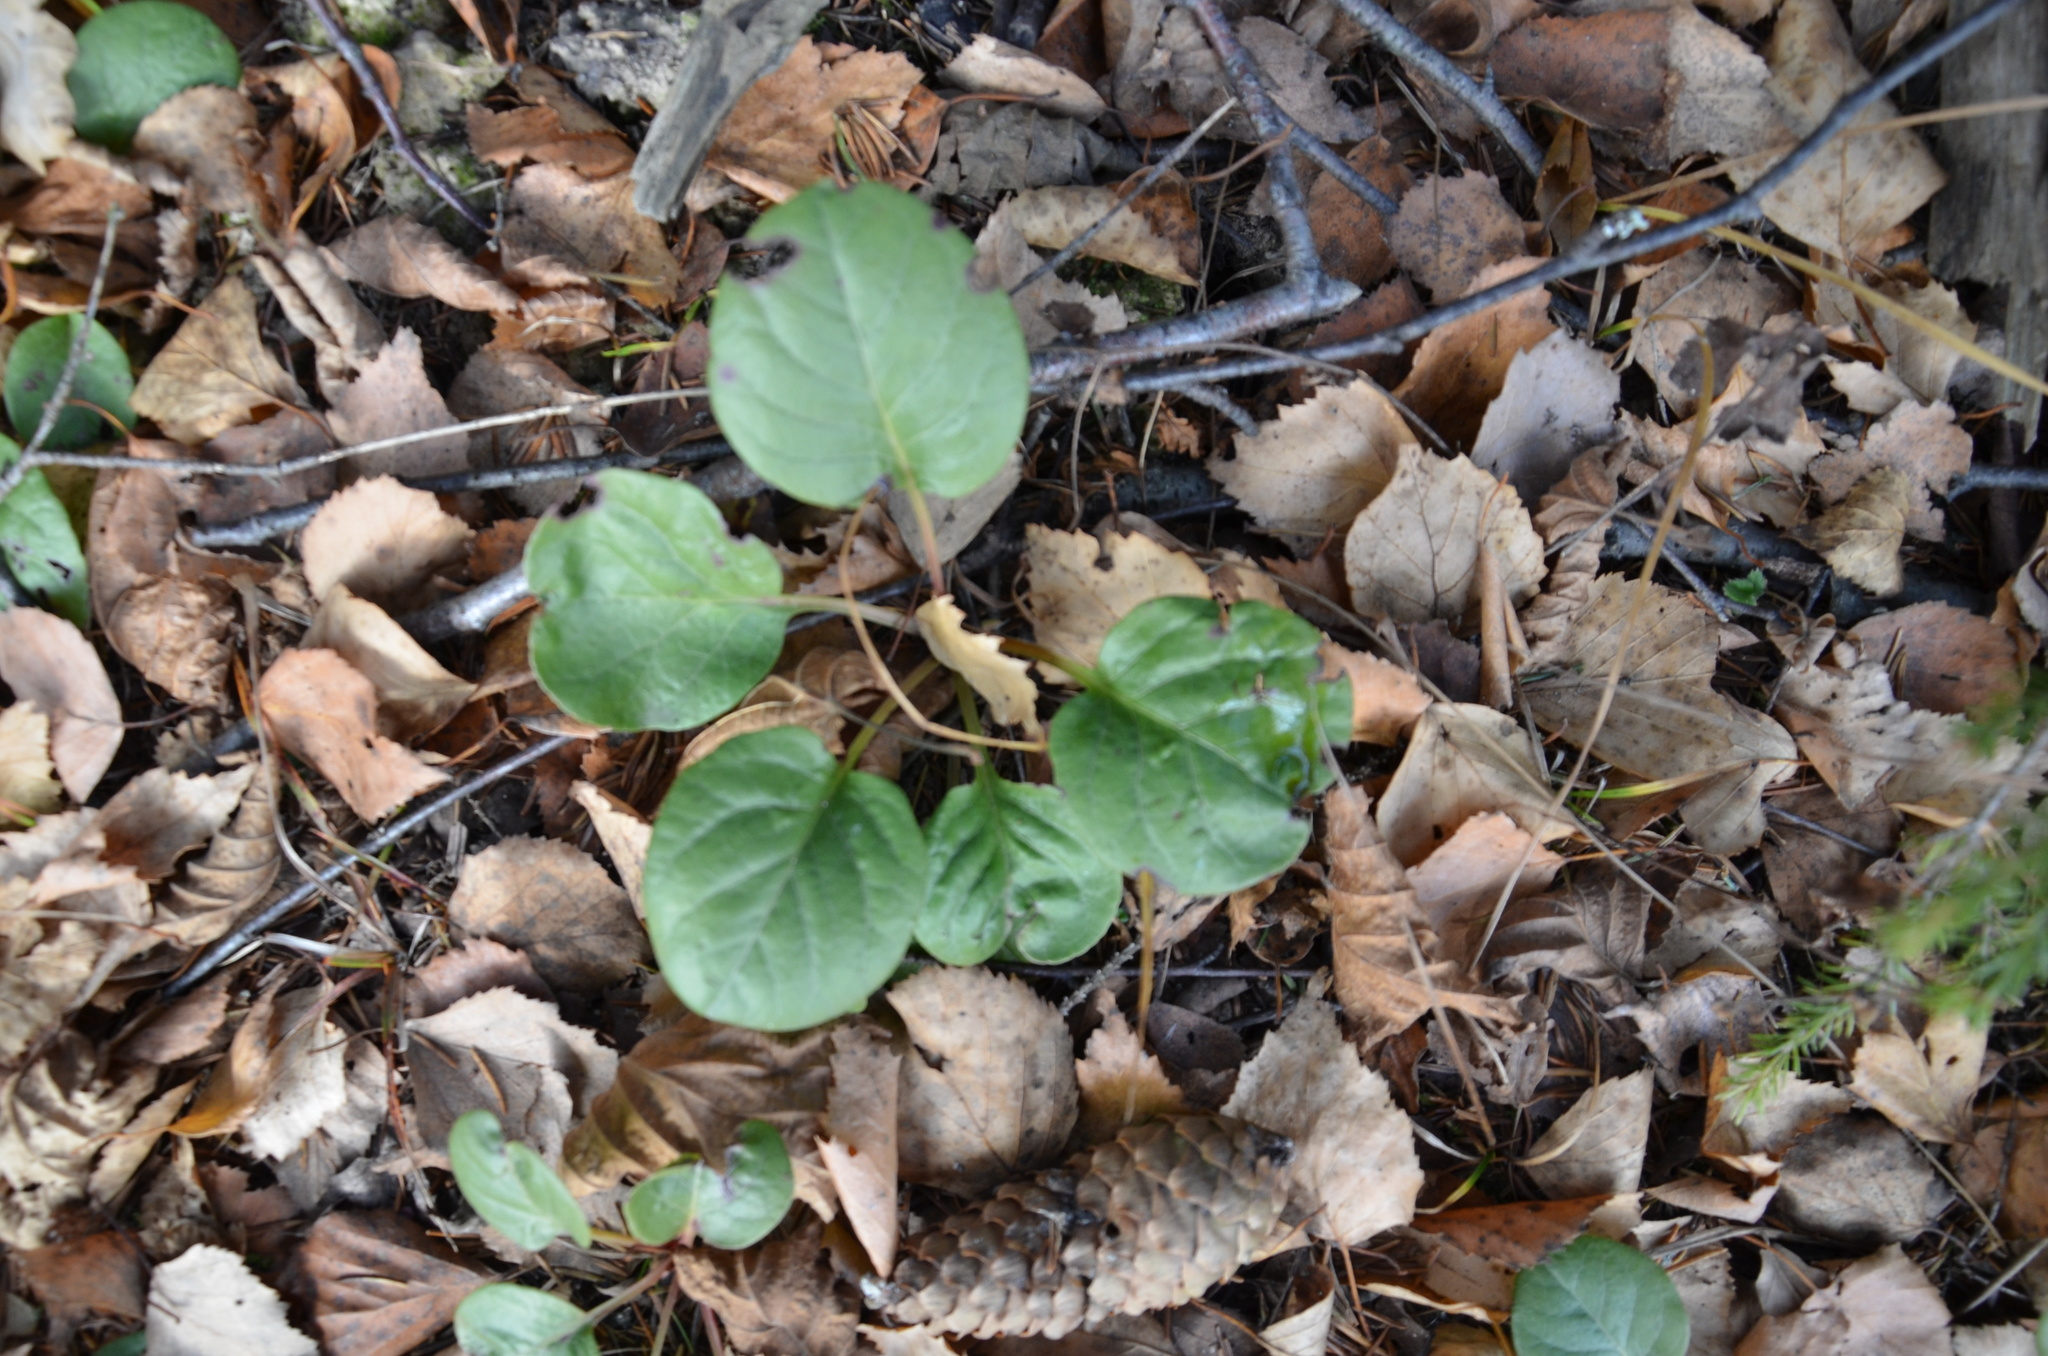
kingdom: Plantae
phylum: Tracheophyta
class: Magnoliopsida
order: Ericales
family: Ericaceae
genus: Pyrola
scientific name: Pyrola rotundifolia
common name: Round-leaved wintergreen
